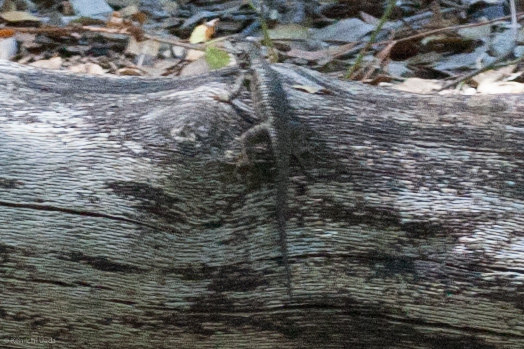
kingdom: Animalia
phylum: Chordata
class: Squamata
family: Phrynosomatidae
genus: Sceloporus
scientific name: Sceloporus occidentalis
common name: Western fence lizard
